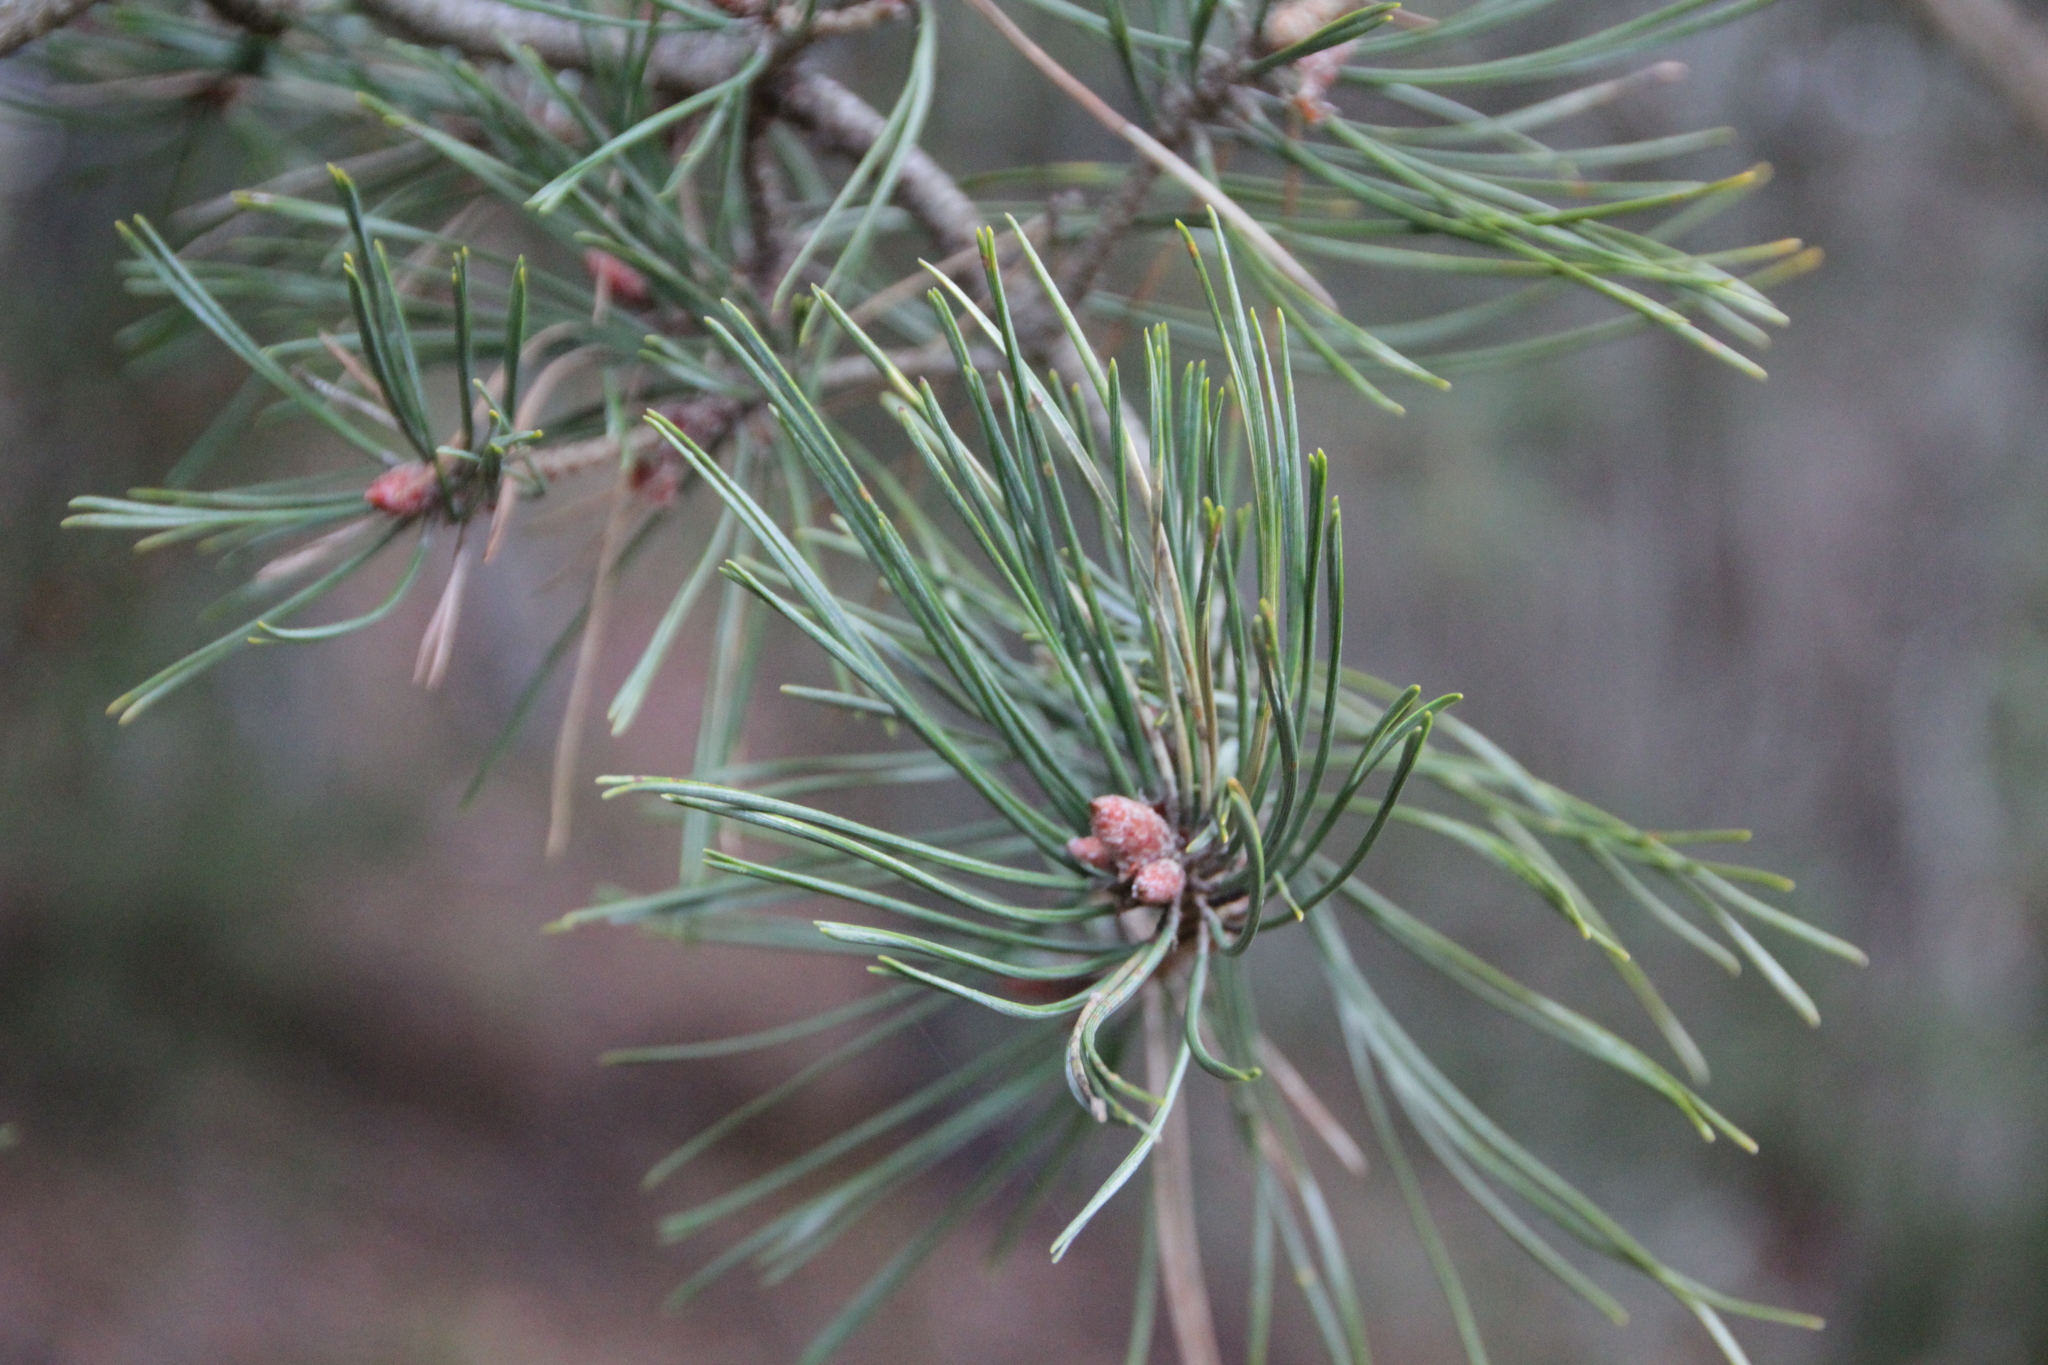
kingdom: Plantae
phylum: Tracheophyta
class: Pinopsida
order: Pinales
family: Pinaceae
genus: Pinus
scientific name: Pinus sylvestris
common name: Scots pine
